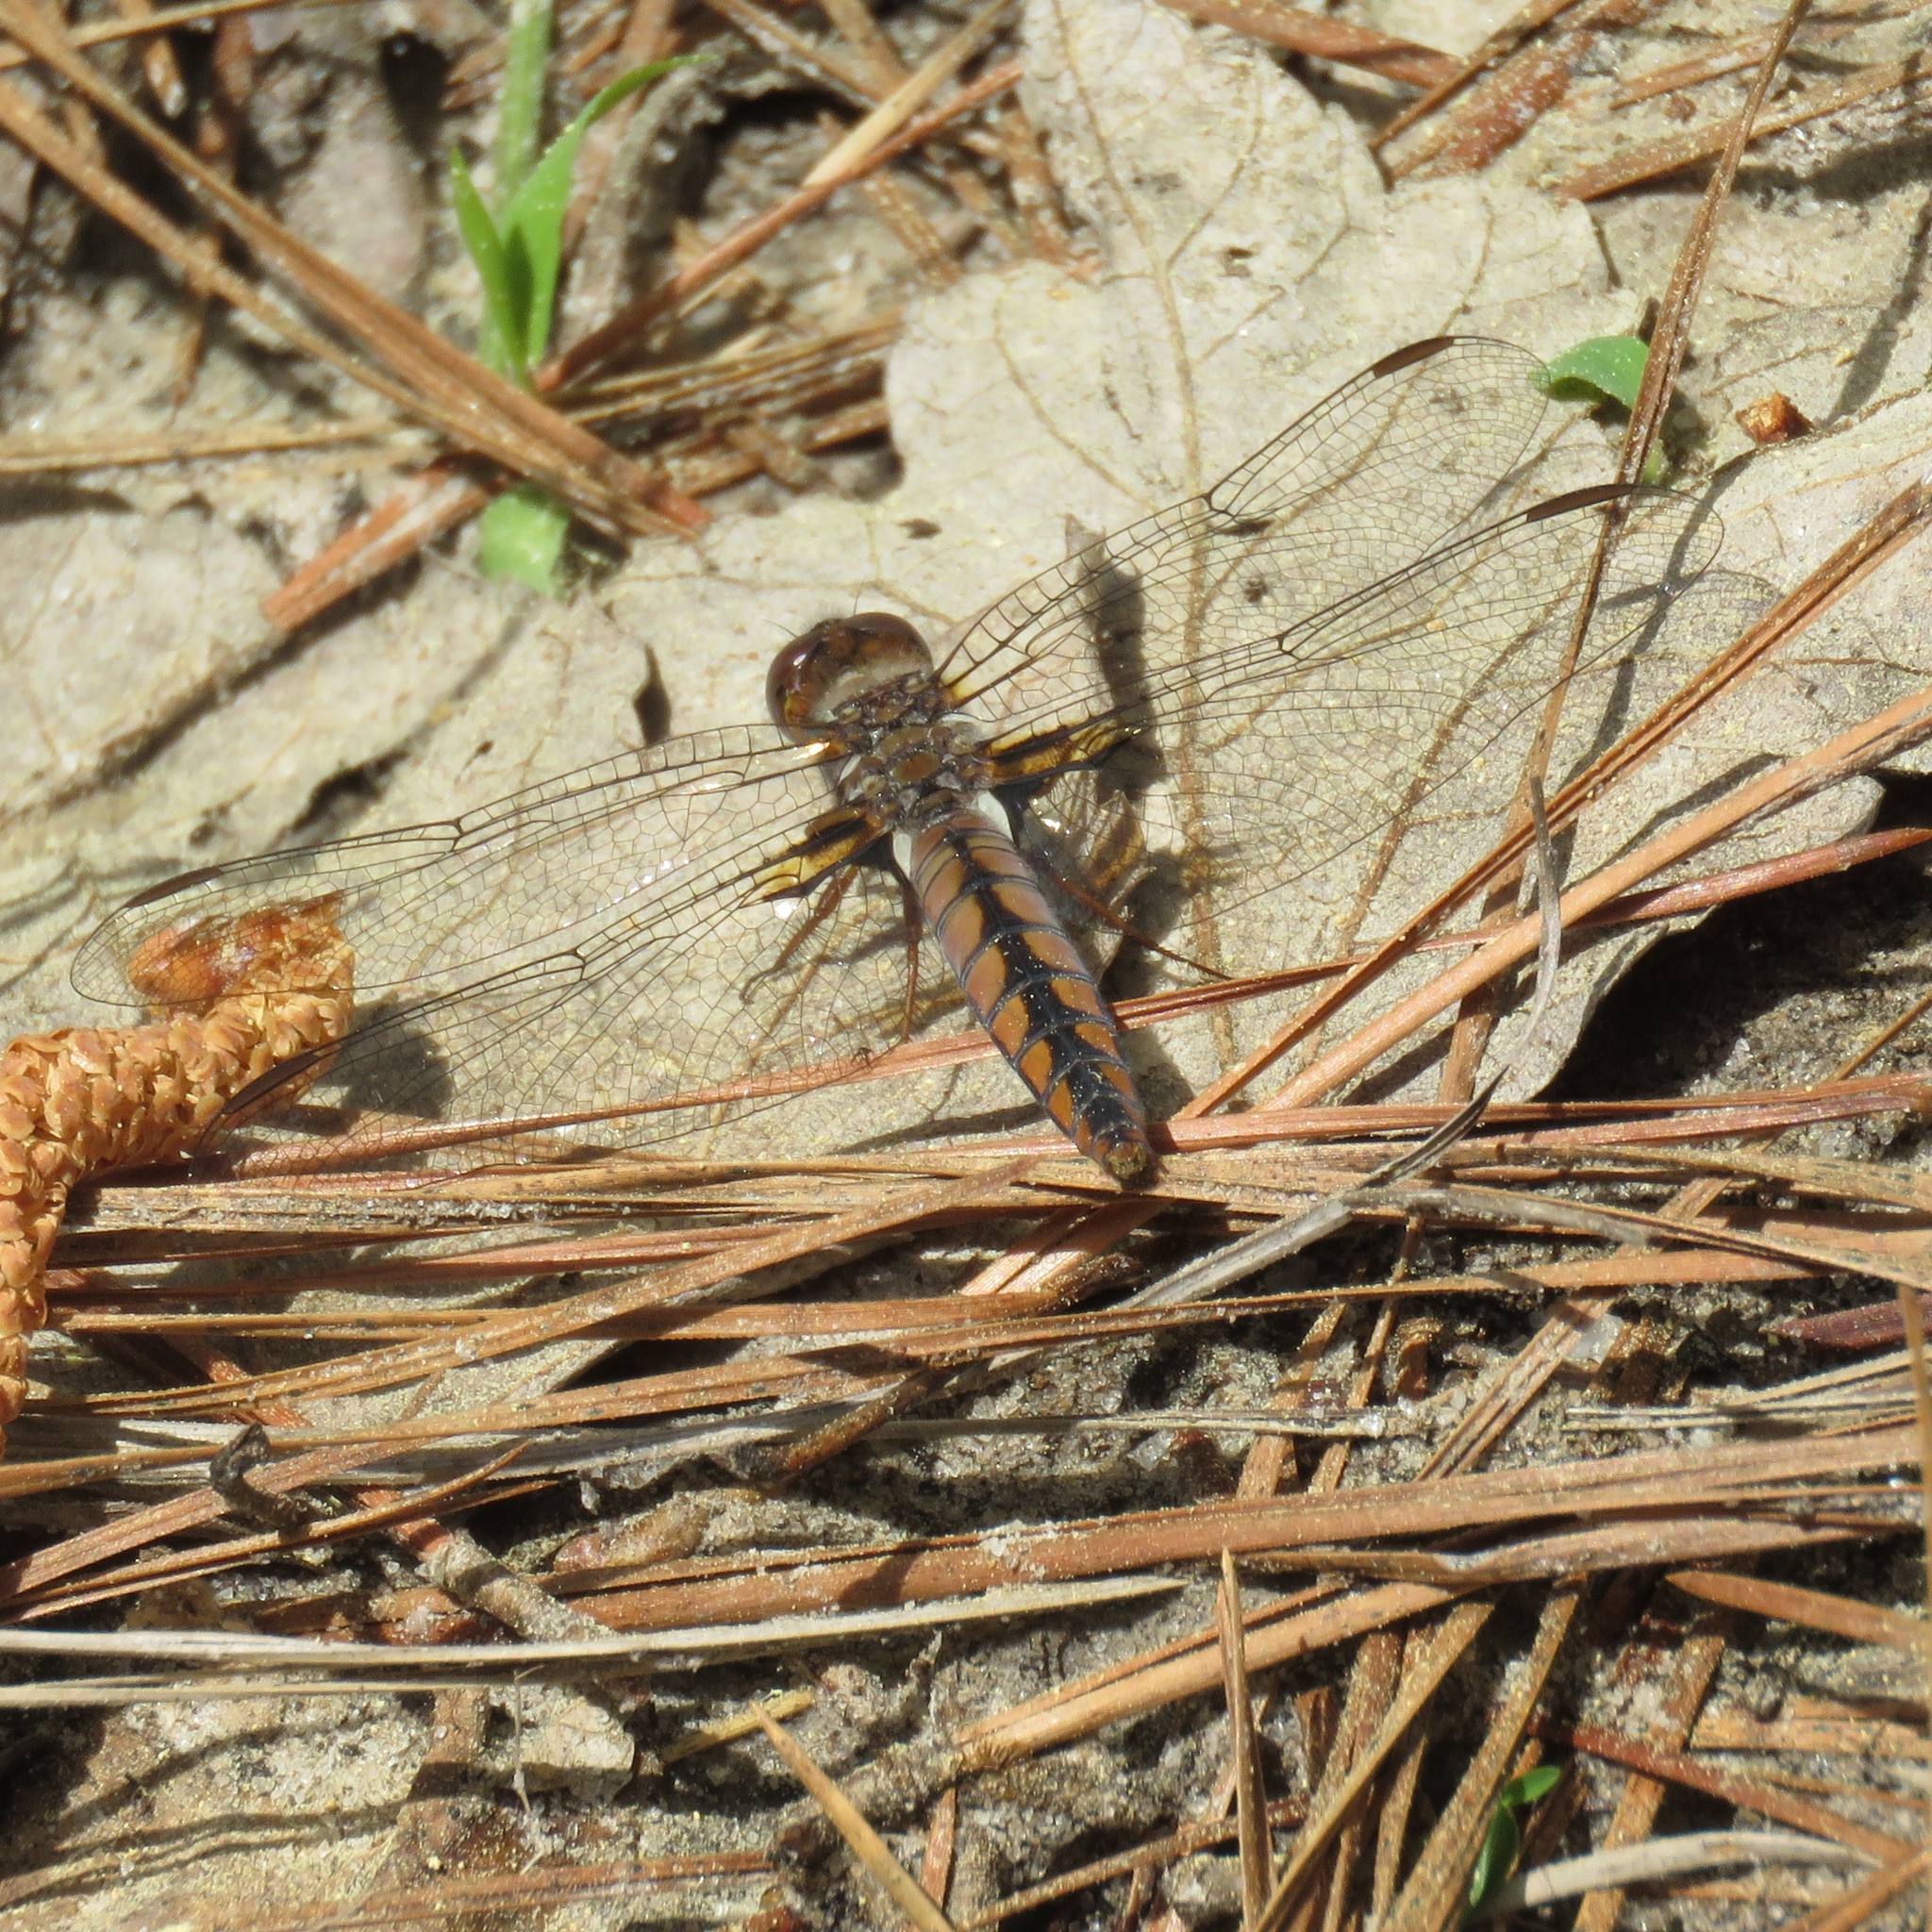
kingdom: Animalia
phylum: Arthropoda
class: Insecta
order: Odonata
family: Libellulidae
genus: Ladona
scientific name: Ladona deplanata
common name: Blue corporal
